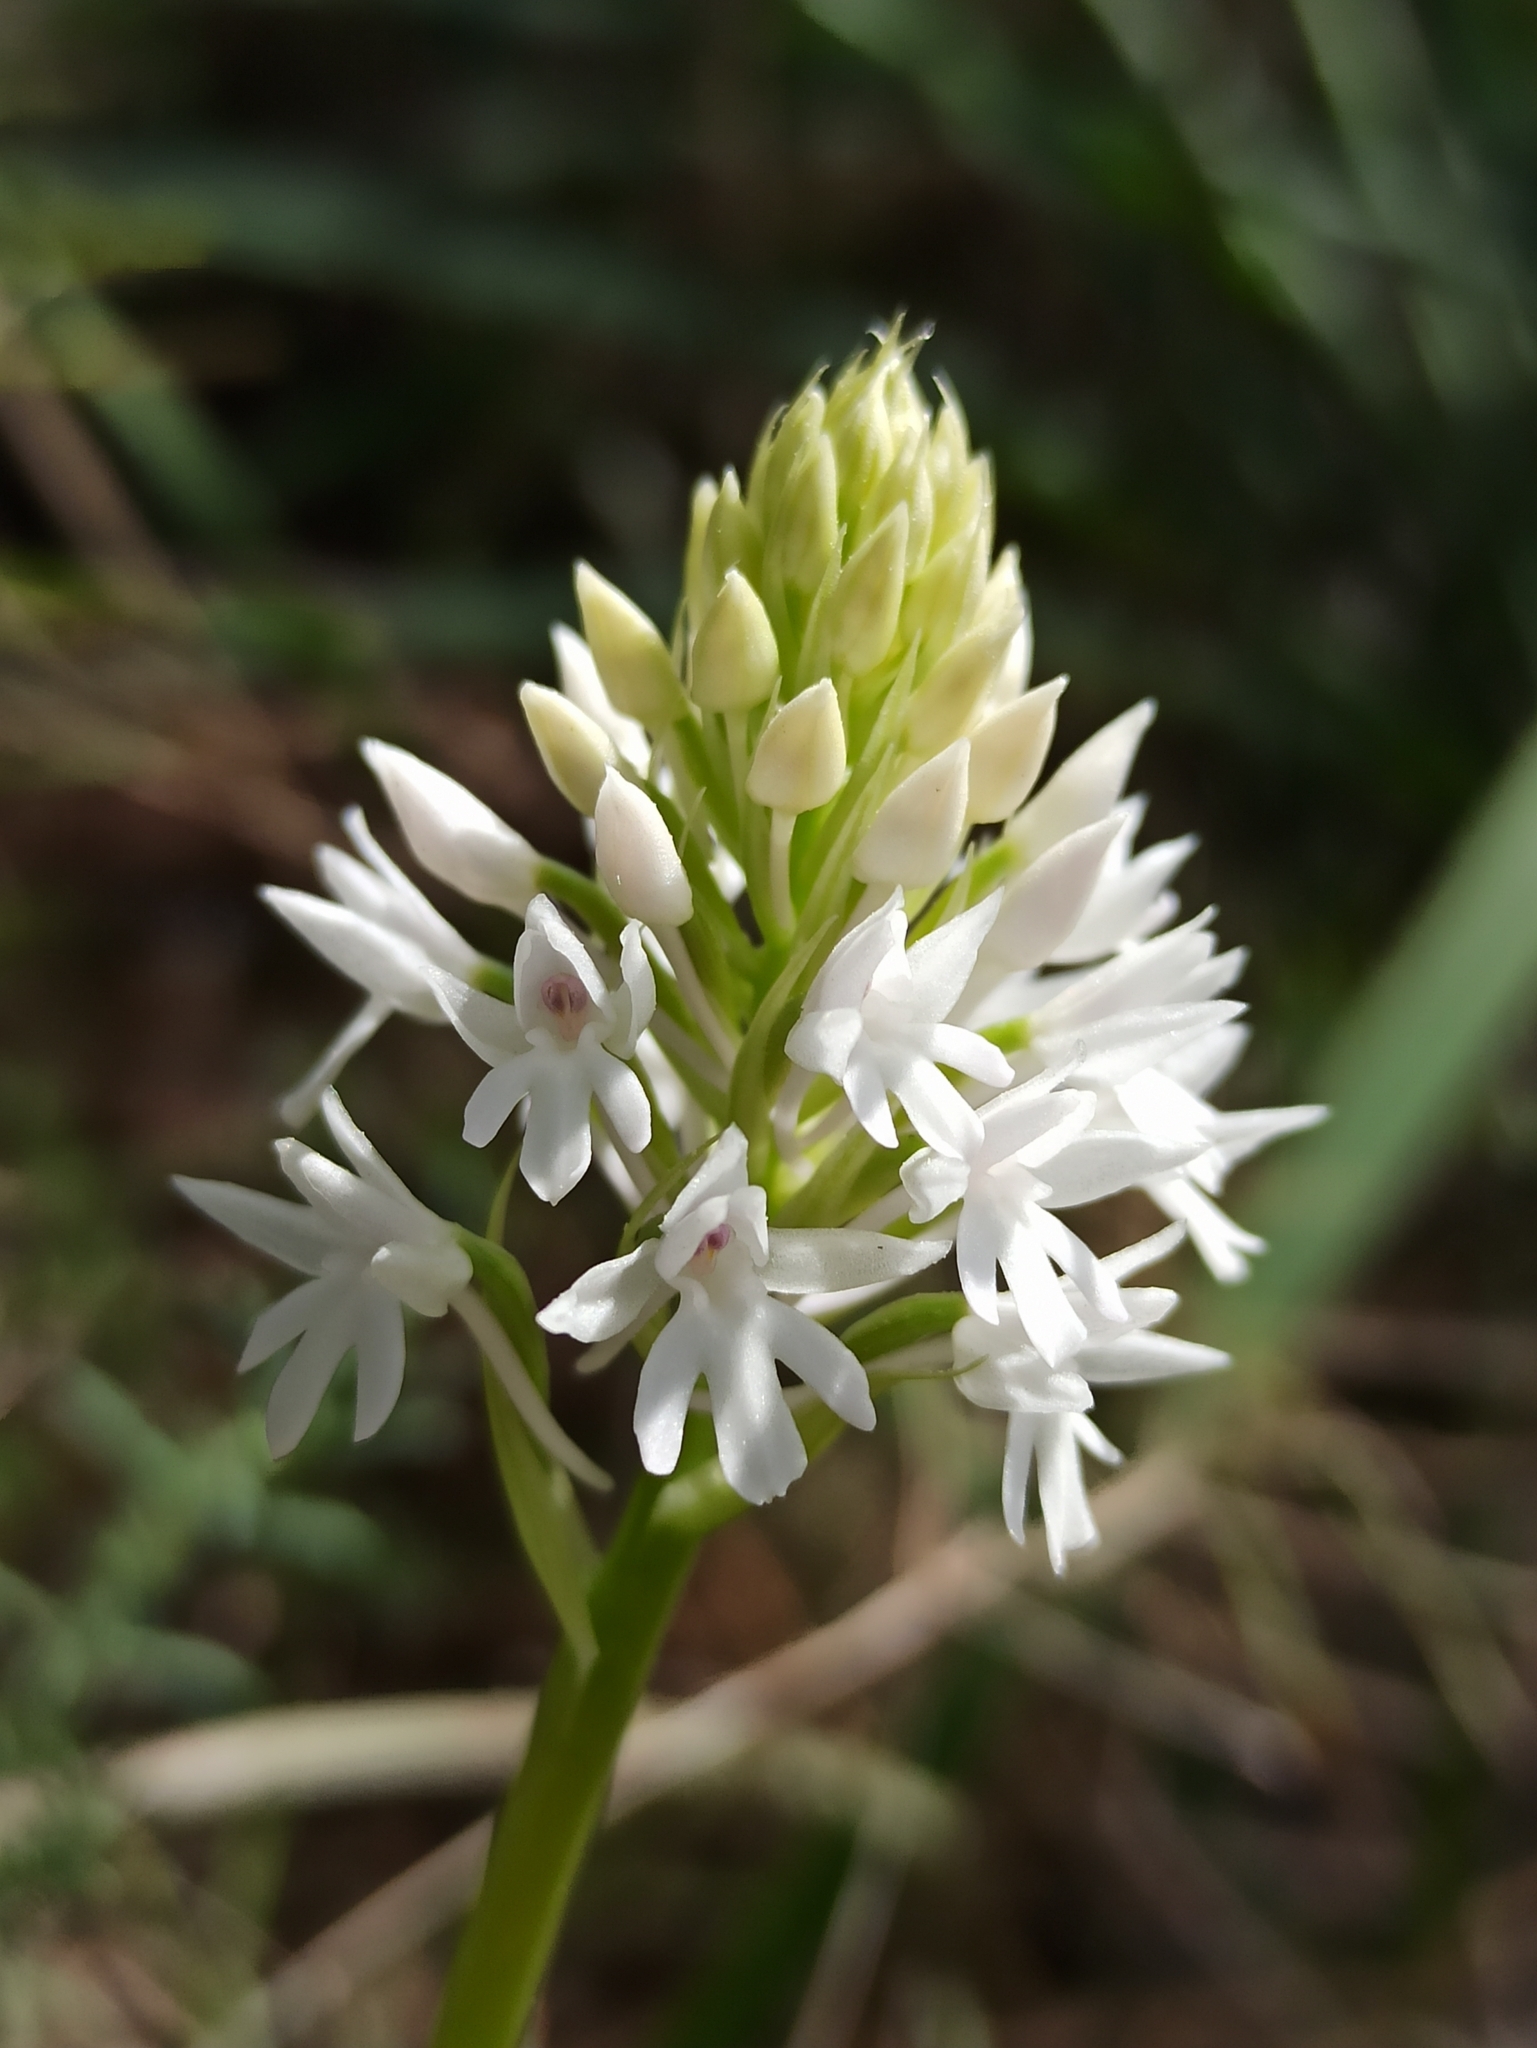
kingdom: Plantae
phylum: Tracheophyta
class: Liliopsida
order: Asparagales
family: Orchidaceae
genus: Anacamptis
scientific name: Anacamptis pyramidalis
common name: Pyramidal orchid
